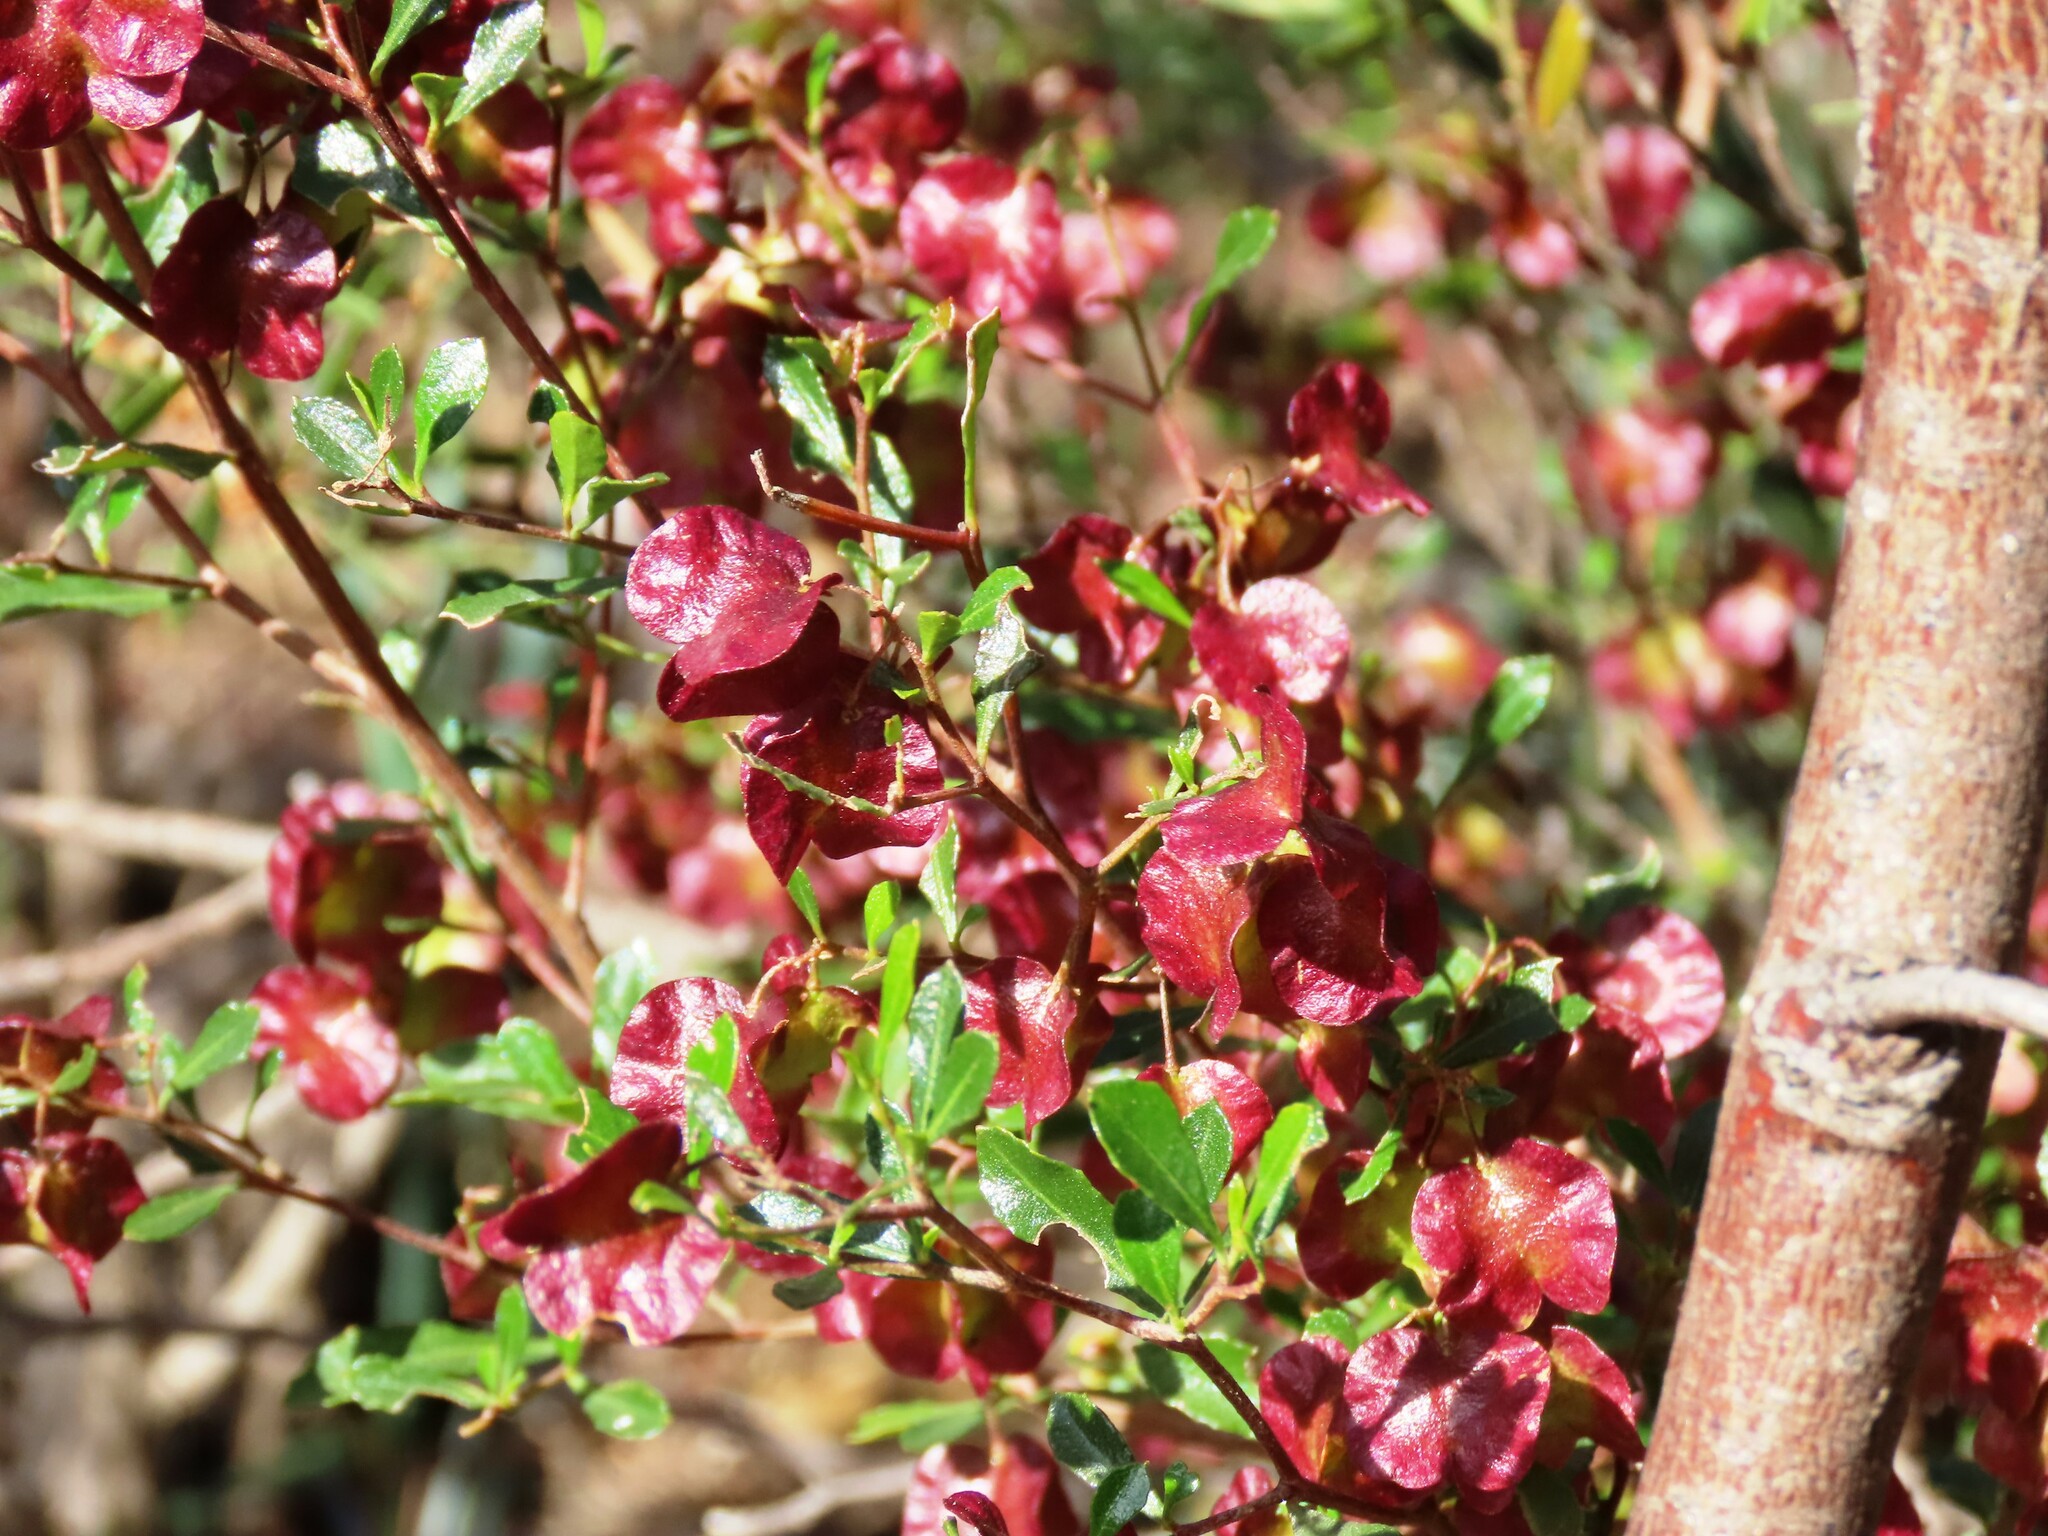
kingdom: Plantae
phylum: Tracheophyta
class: Magnoliopsida
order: Sapindales
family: Sapindaceae
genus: Dodonaea
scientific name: Dodonaea viscosa
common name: Hopbush
